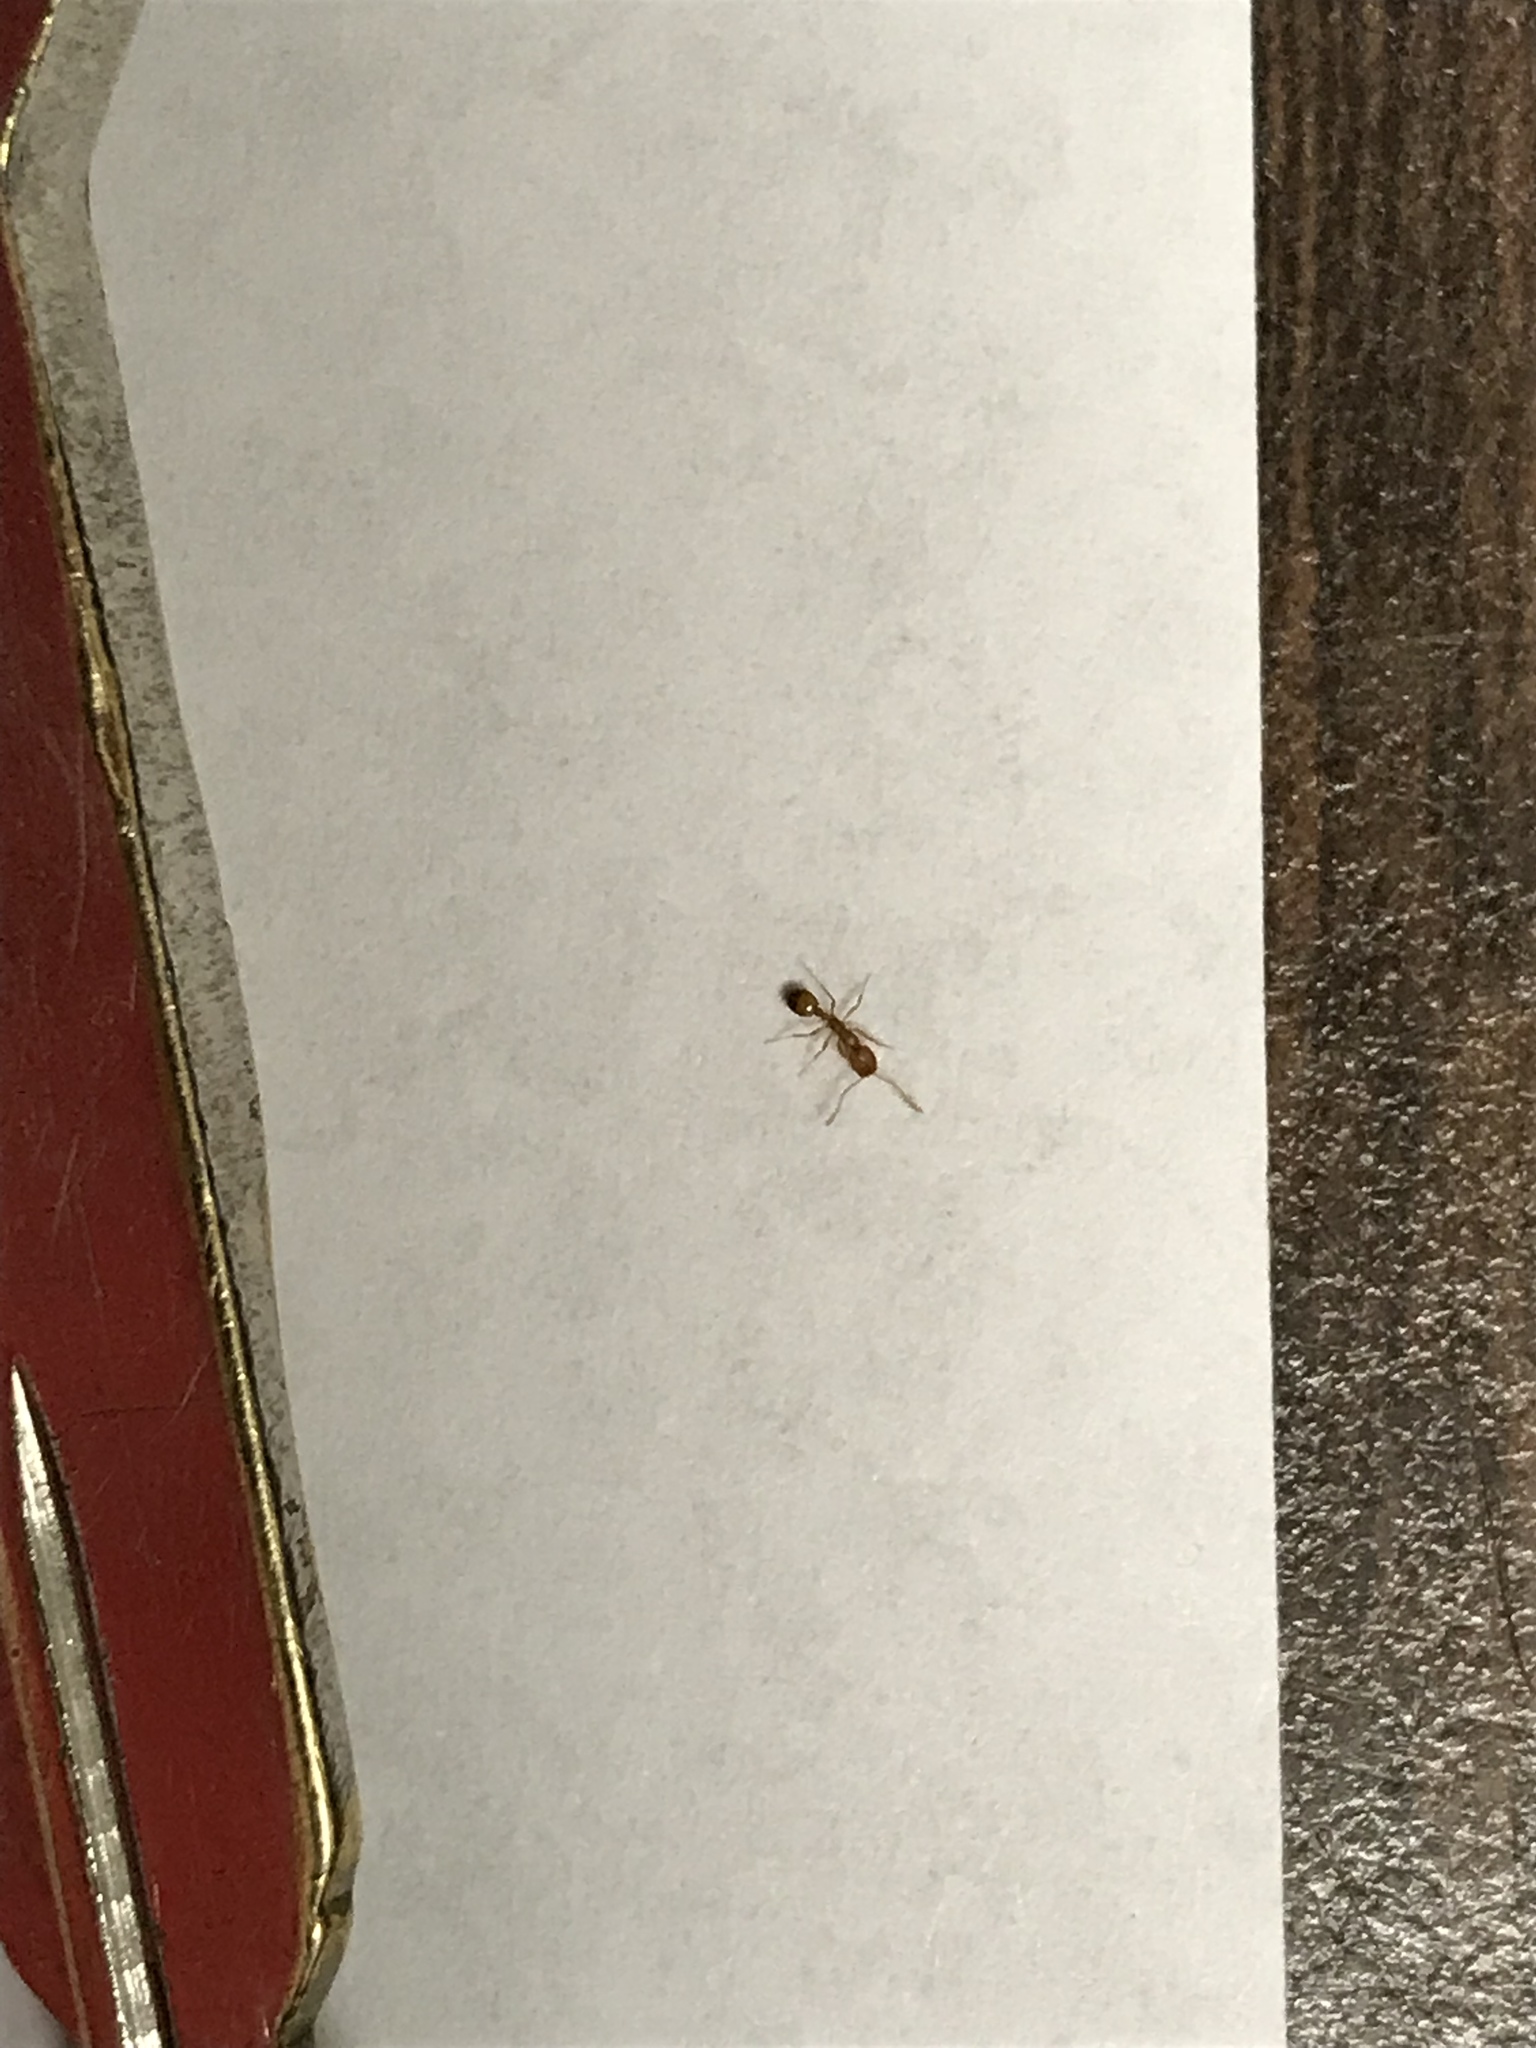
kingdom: Animalia
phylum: Arthropoda
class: Insecta
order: Hymenoptera
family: Formicidae
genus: Monomorium
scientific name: Monomorium pharaonis
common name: Pharaoh ant
